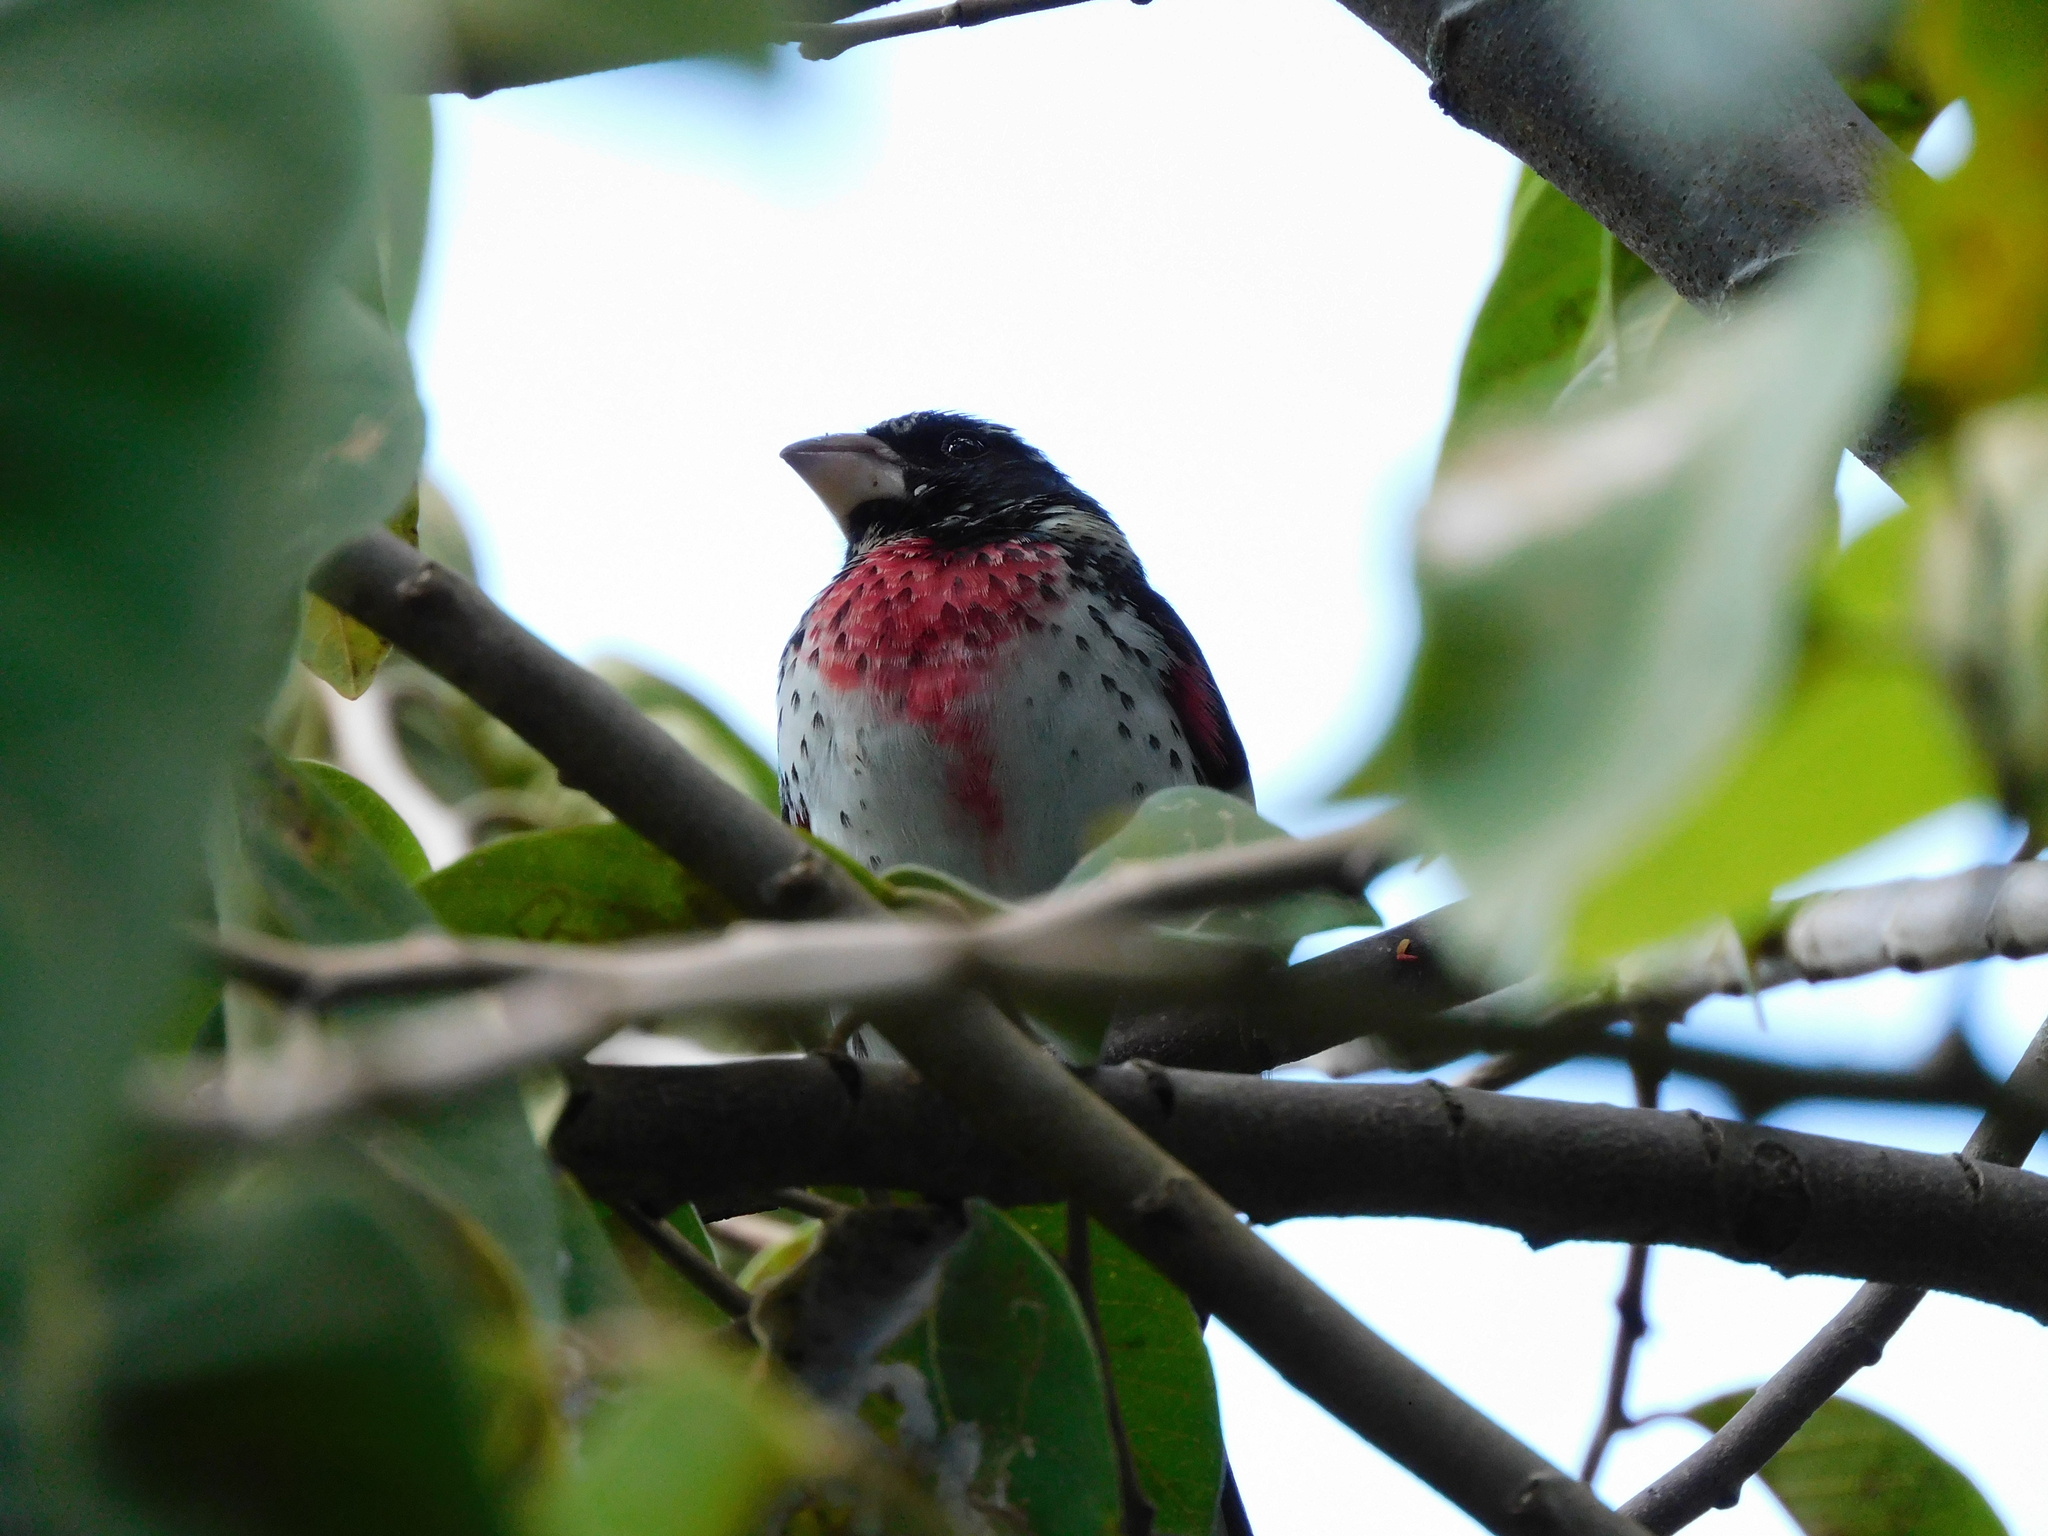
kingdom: Animalia
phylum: Chordata
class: Aves
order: Passeriformes
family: Cardinalidae
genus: Pheucticus
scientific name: Pheucticus ludovicianus
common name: Rose-breasted grosbeak
